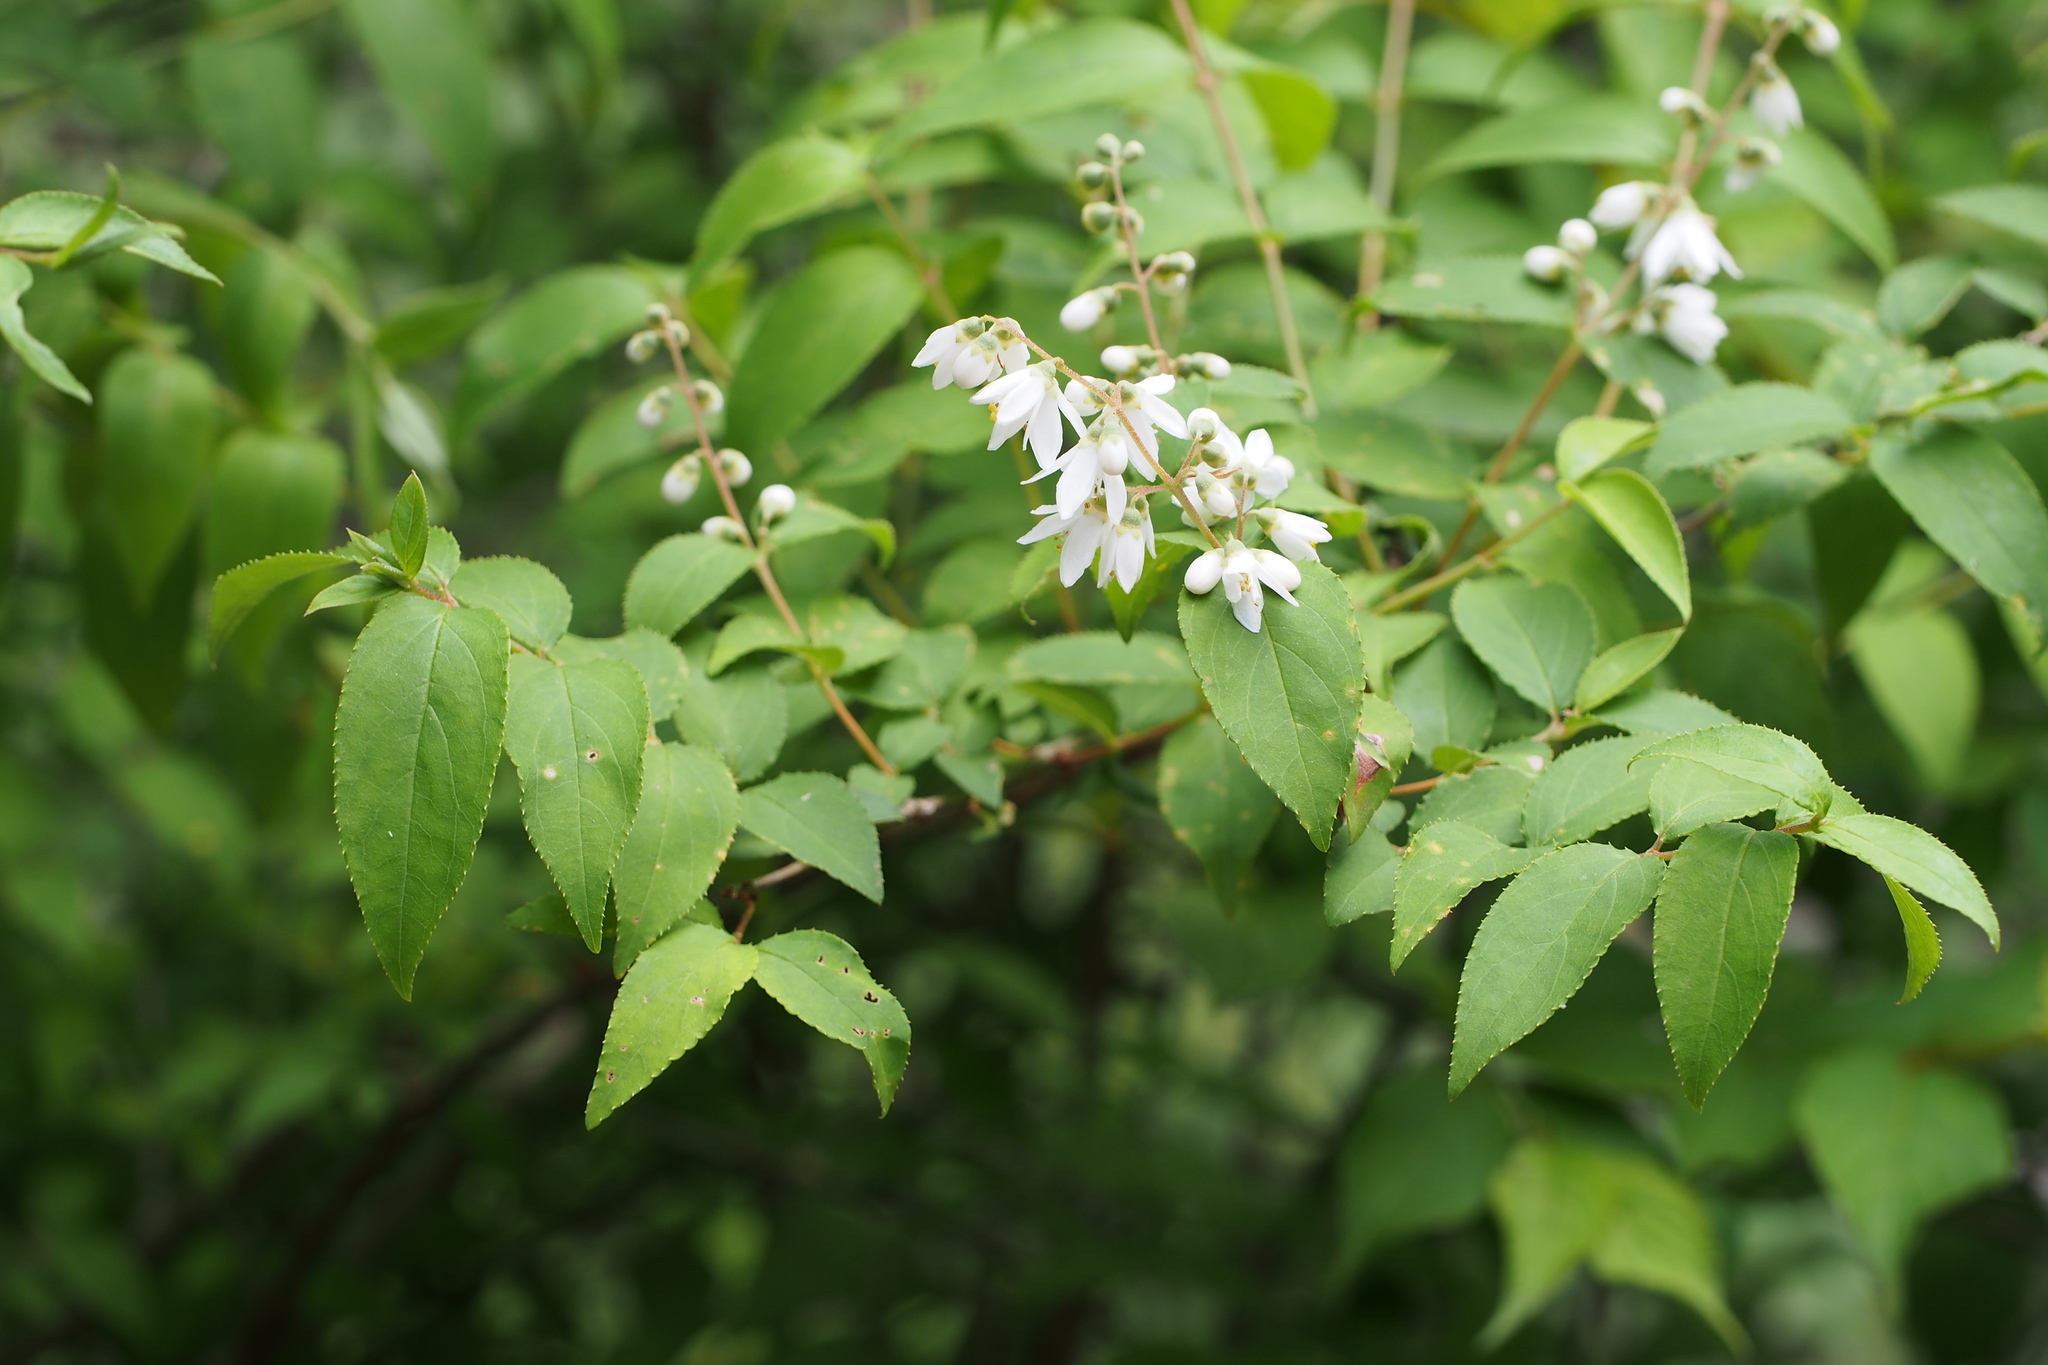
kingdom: Plantae
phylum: Tracheophyta
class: Magnoliopsida
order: Cornales
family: Hydrangeaceae
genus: Deutzia
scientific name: Deutzia crenata
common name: Deutzia
